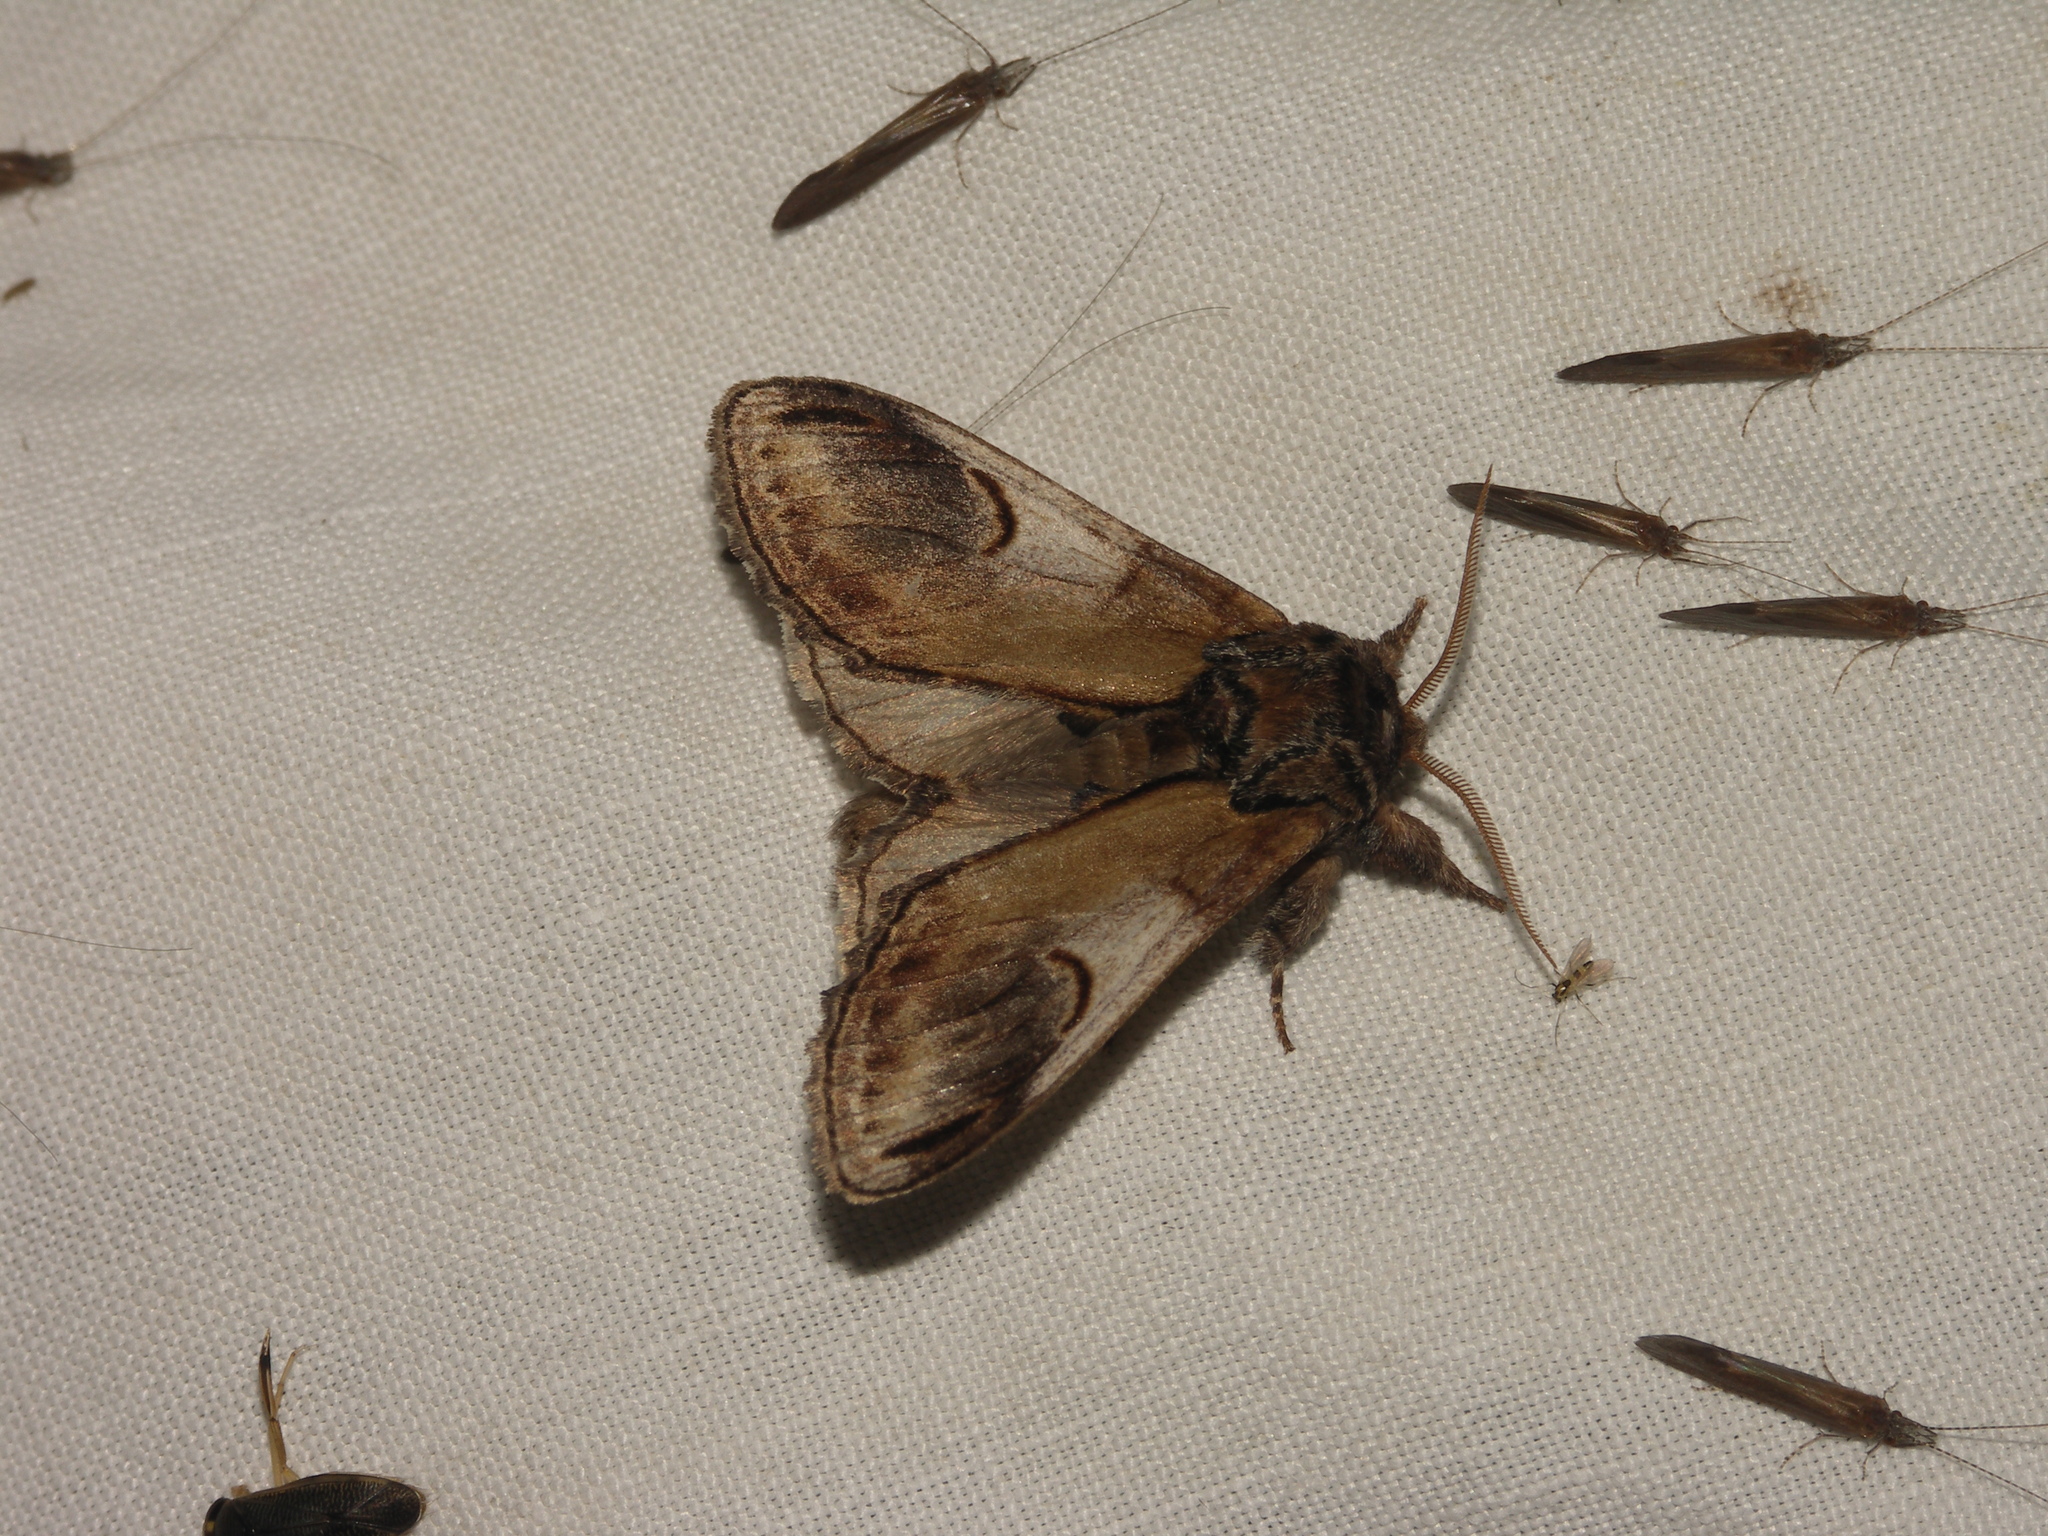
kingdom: Animalia
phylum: Arthropoda
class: Insecta
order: Lepidoptera
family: Notodontidae
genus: Notodonta
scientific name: Notodonta ziczac
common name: Pebble prominent
